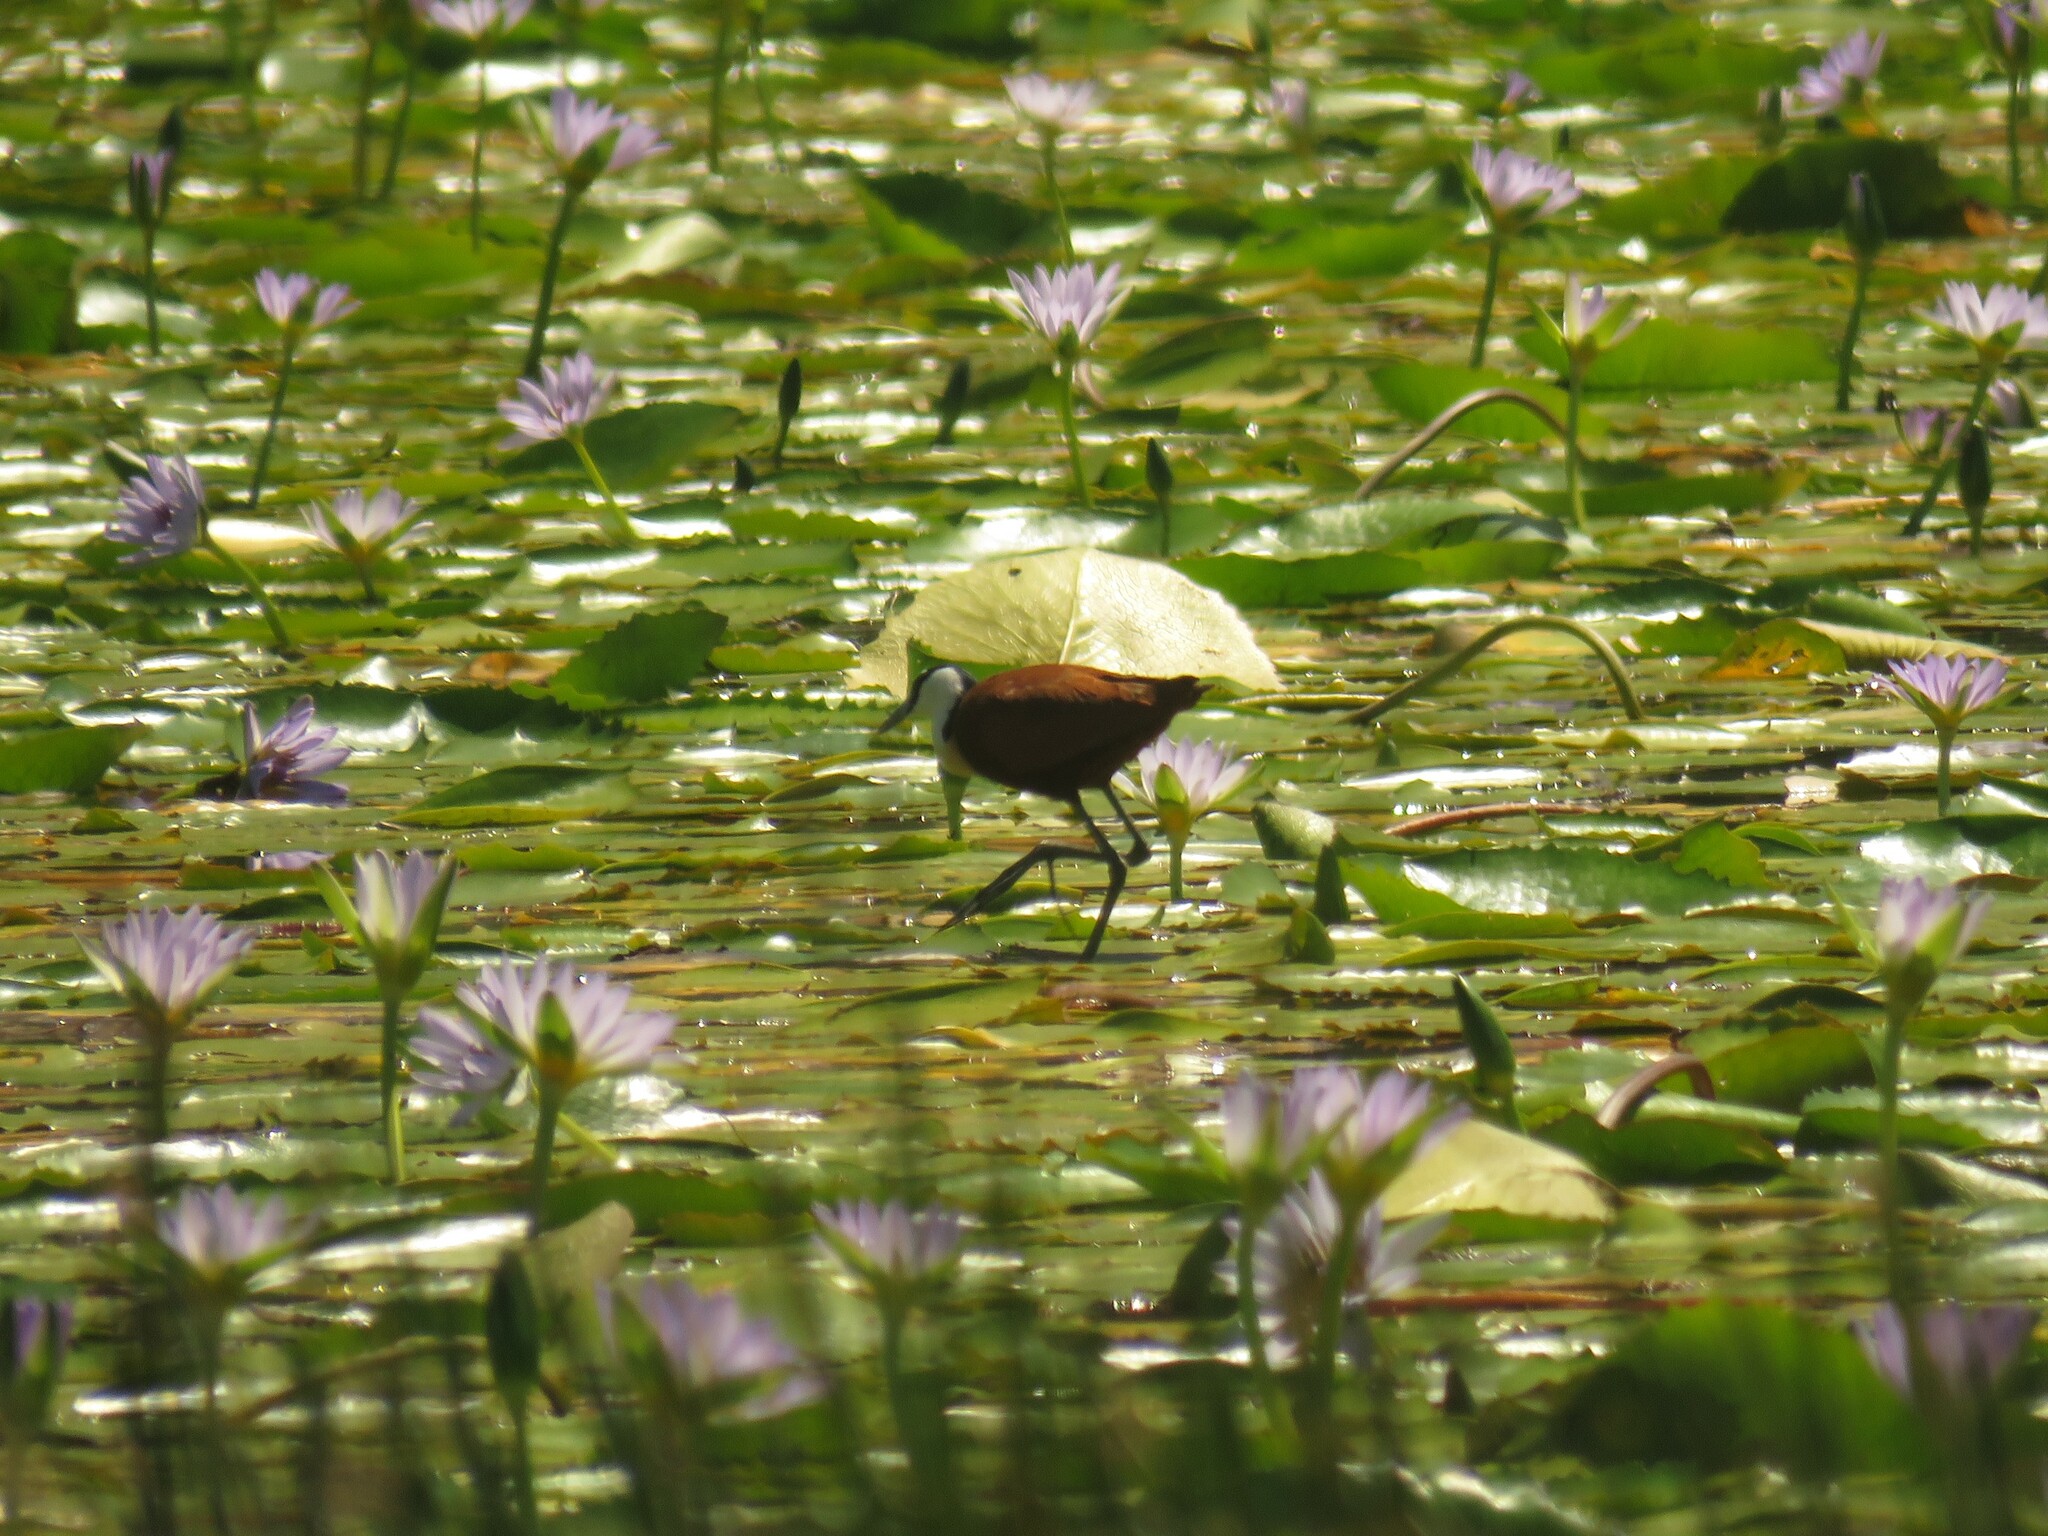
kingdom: Animalia
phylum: Chordata
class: Aves
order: Charadriiformes
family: Jacanidae
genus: Actophilornis
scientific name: Actophilornis africanus
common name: African jacana
